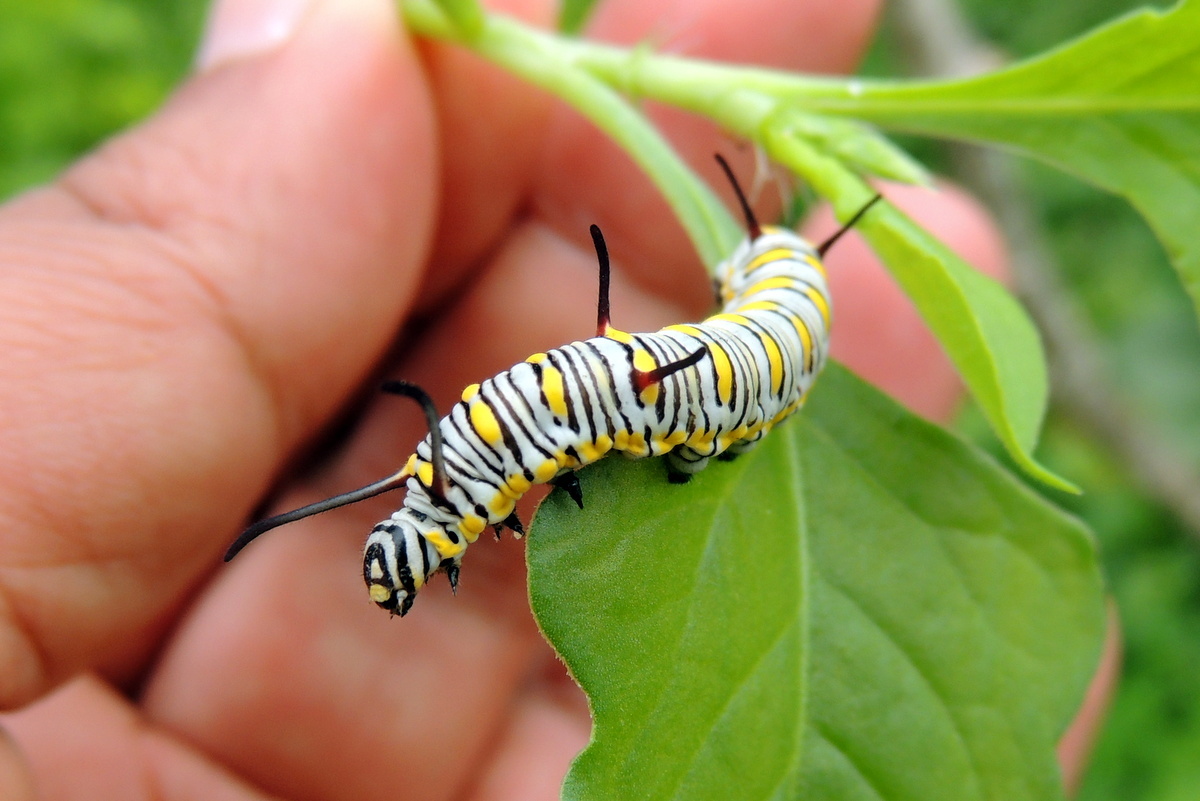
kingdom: Animalia
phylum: Arthropoda
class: Insecta
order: Lepidoptera
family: Nymphalidae
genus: Danaus
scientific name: Danaus chrysippus
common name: Plain tiger
